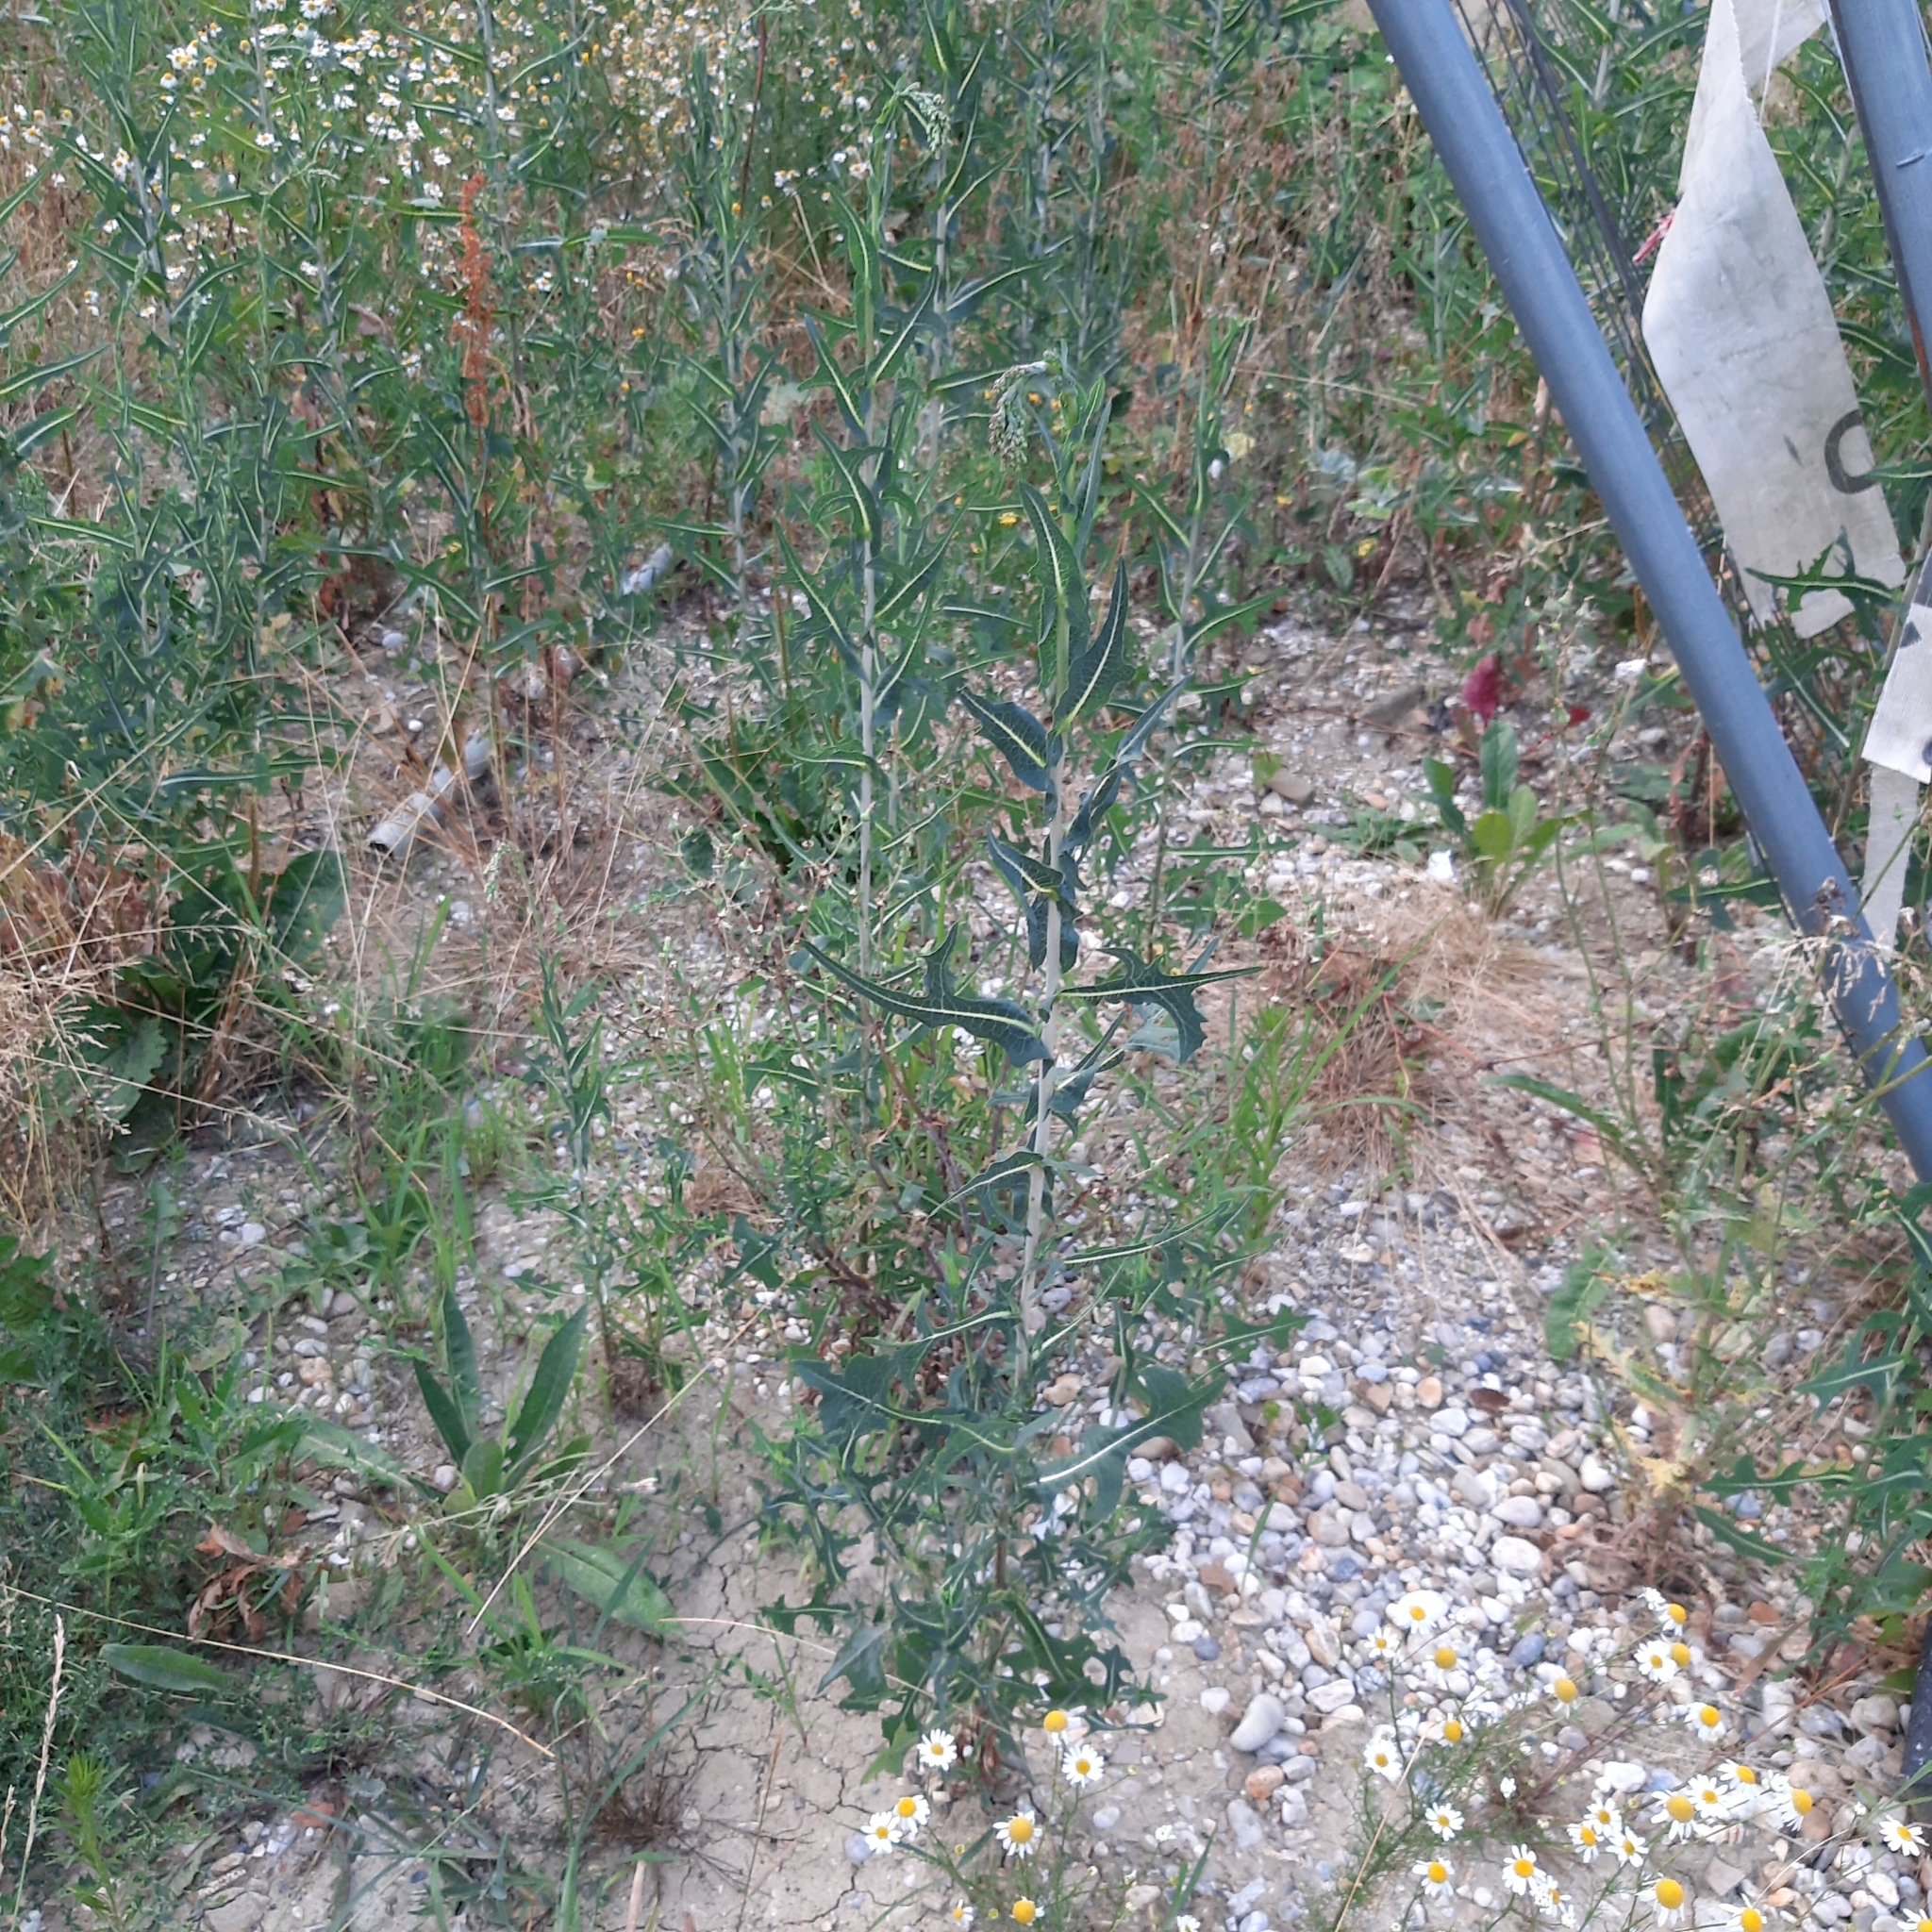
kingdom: Plantae
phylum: Tracheophyta
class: Magnoliopsida
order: Asterales
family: Asteraceae
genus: Lactuca
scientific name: Lactuca serriola
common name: Prickly lettuce
